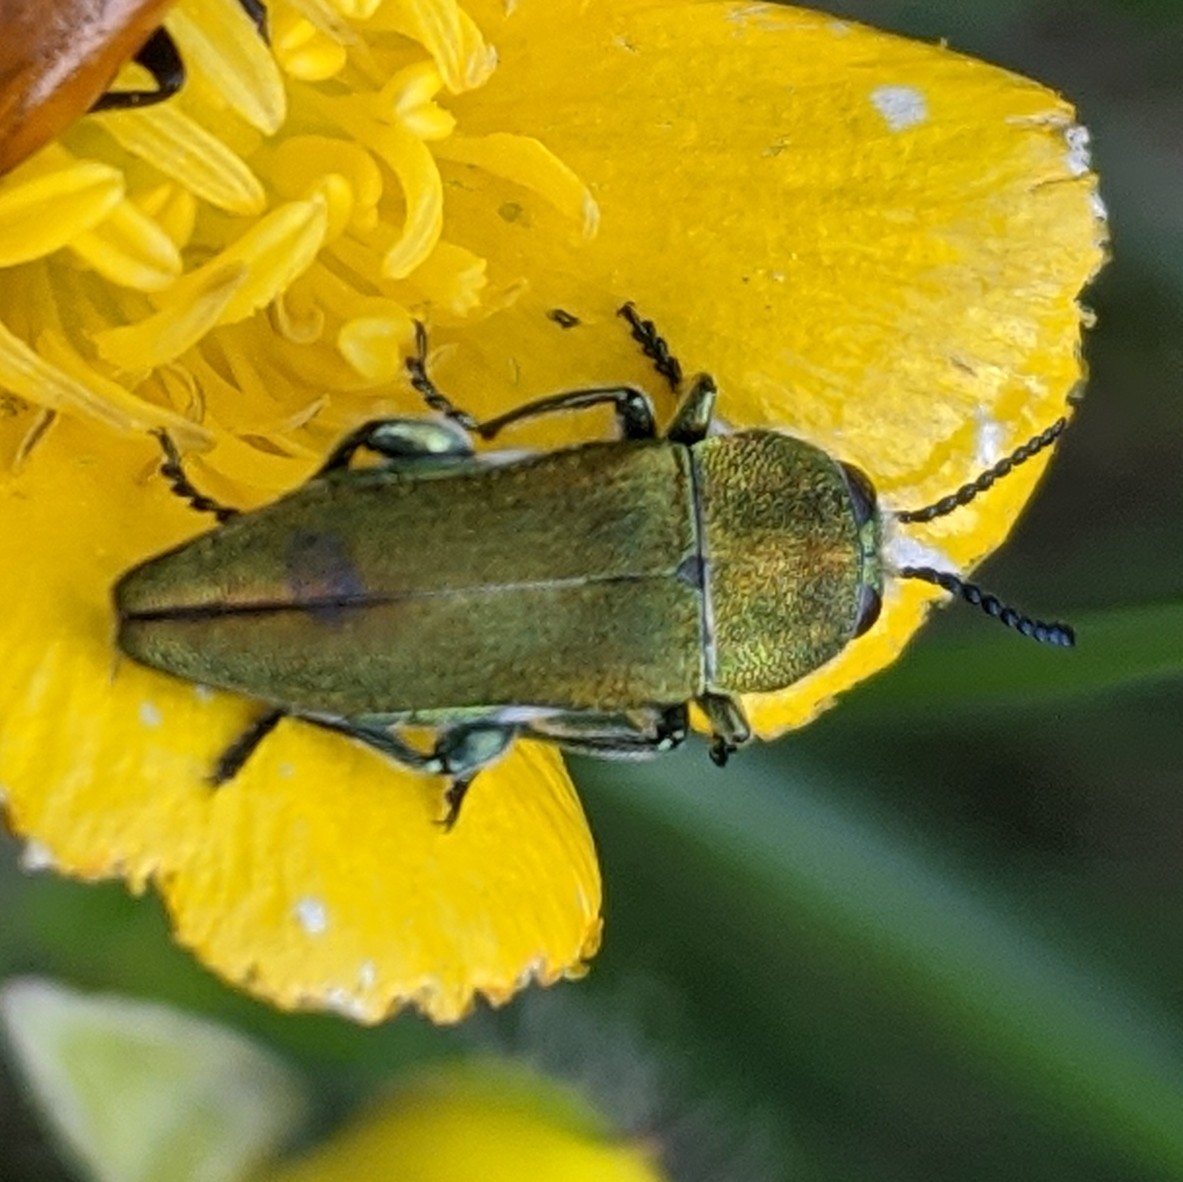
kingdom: Animalia
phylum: Arthropoda
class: Insecta
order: Coleoptera
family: Buprestidae
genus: Anthaxia
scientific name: Anthaxia hungarica
